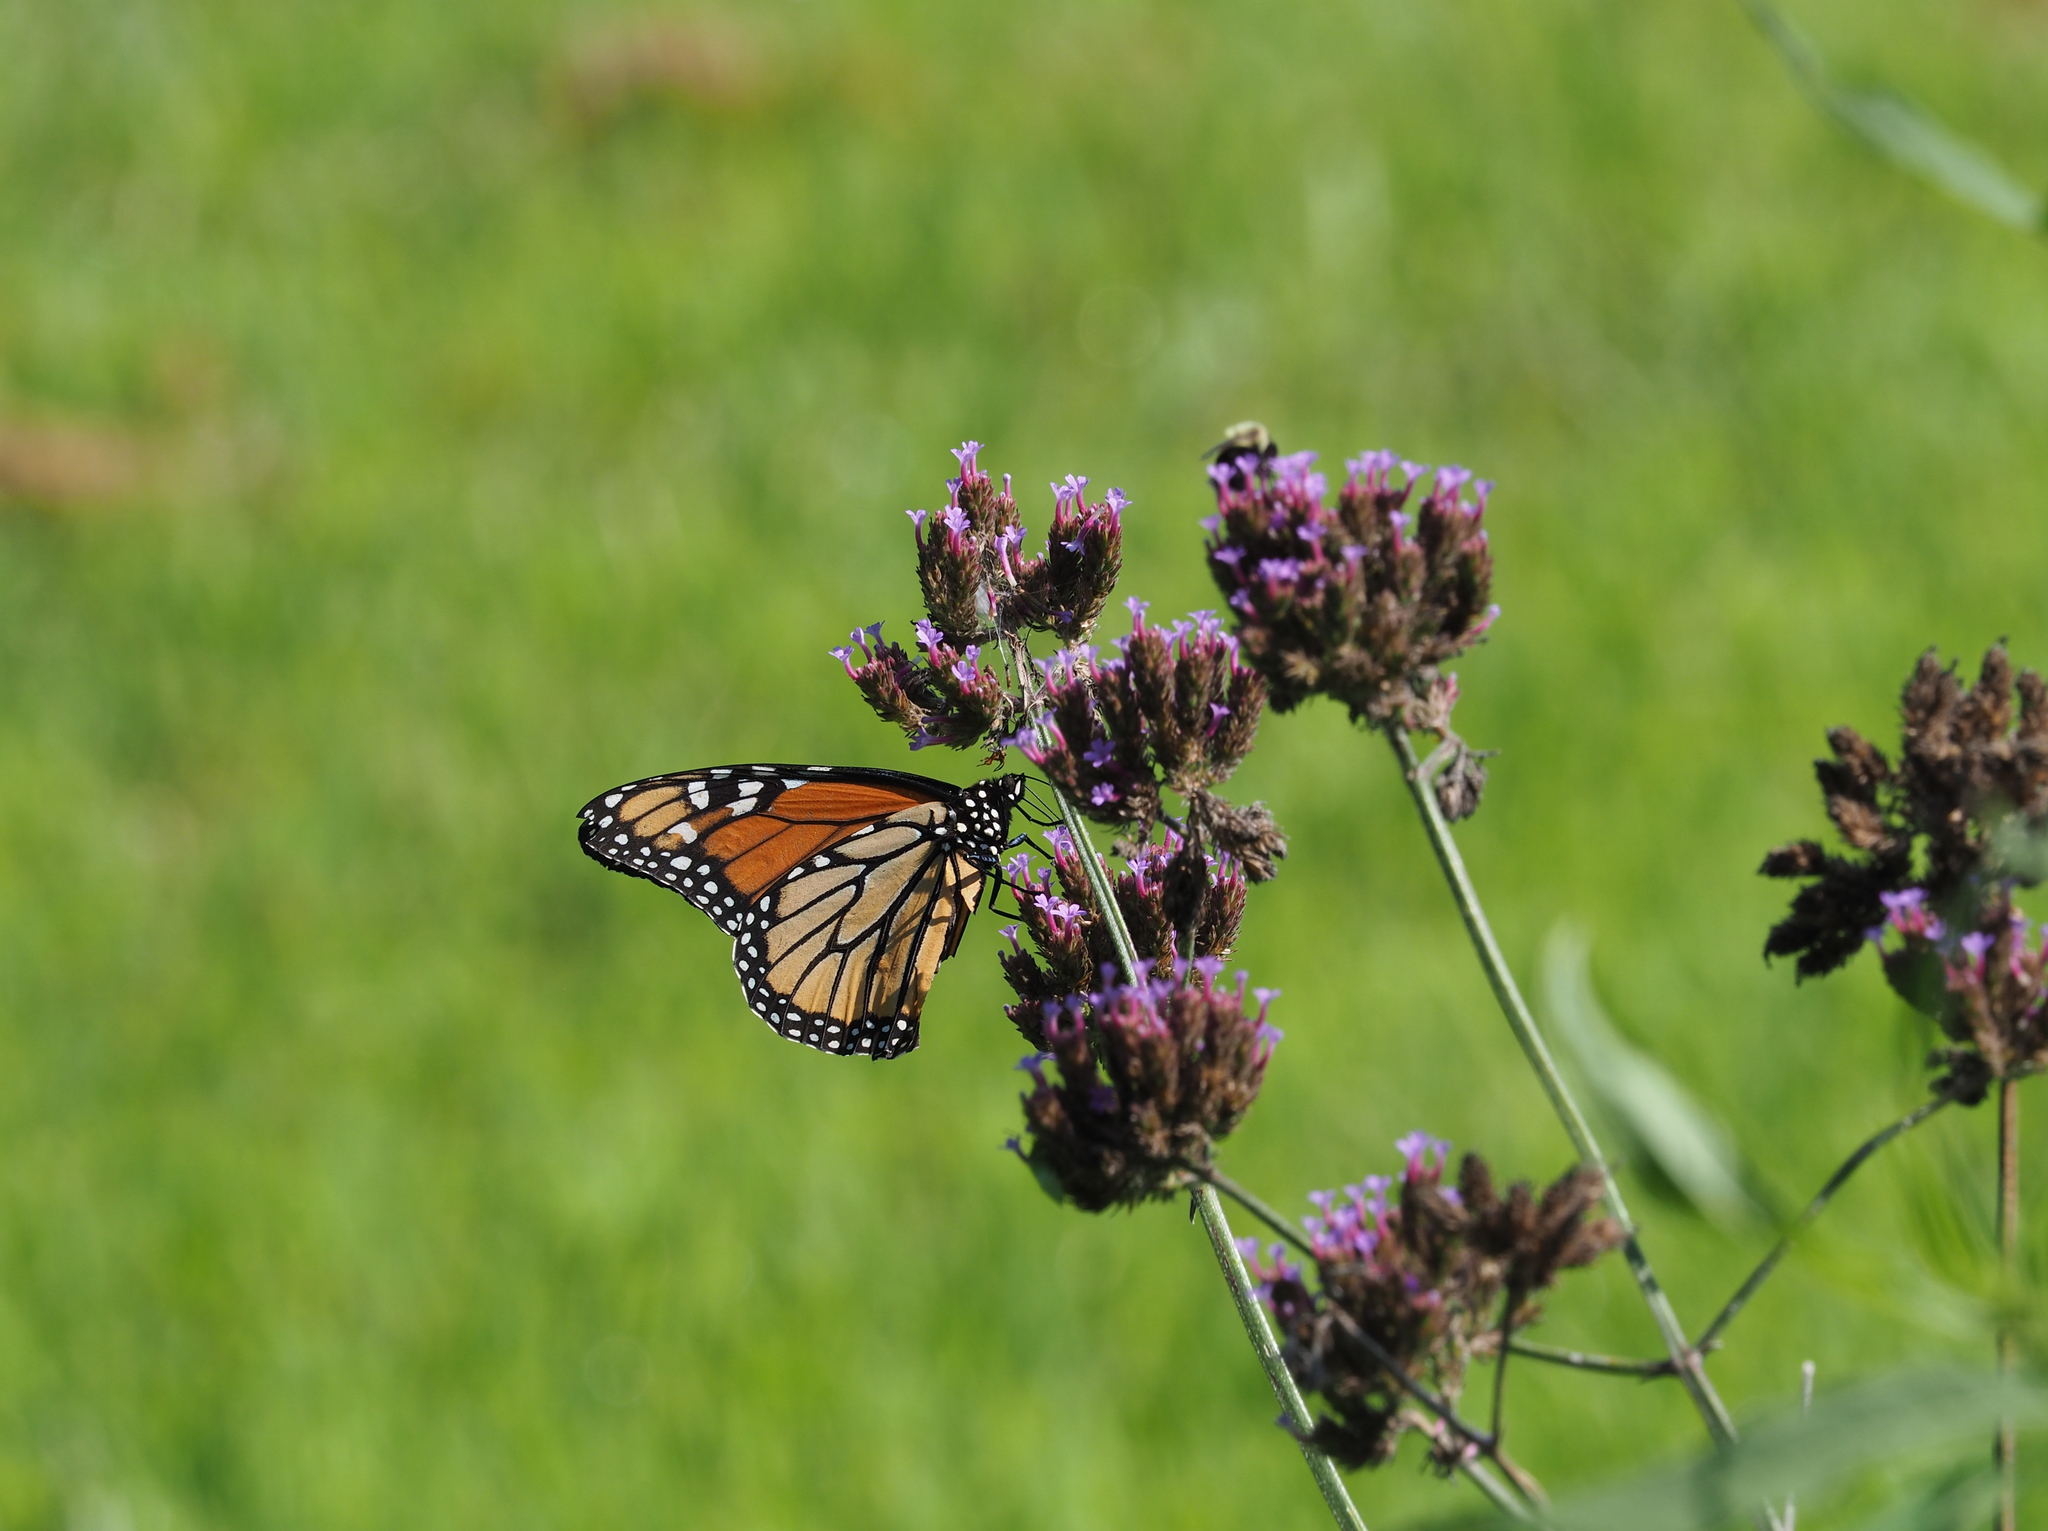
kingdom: Animalia
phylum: Arthropoda
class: Insecta
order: Lepidoptera
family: Nymphalidae
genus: Danaus
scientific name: Danaus plexippus
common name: Monarch
